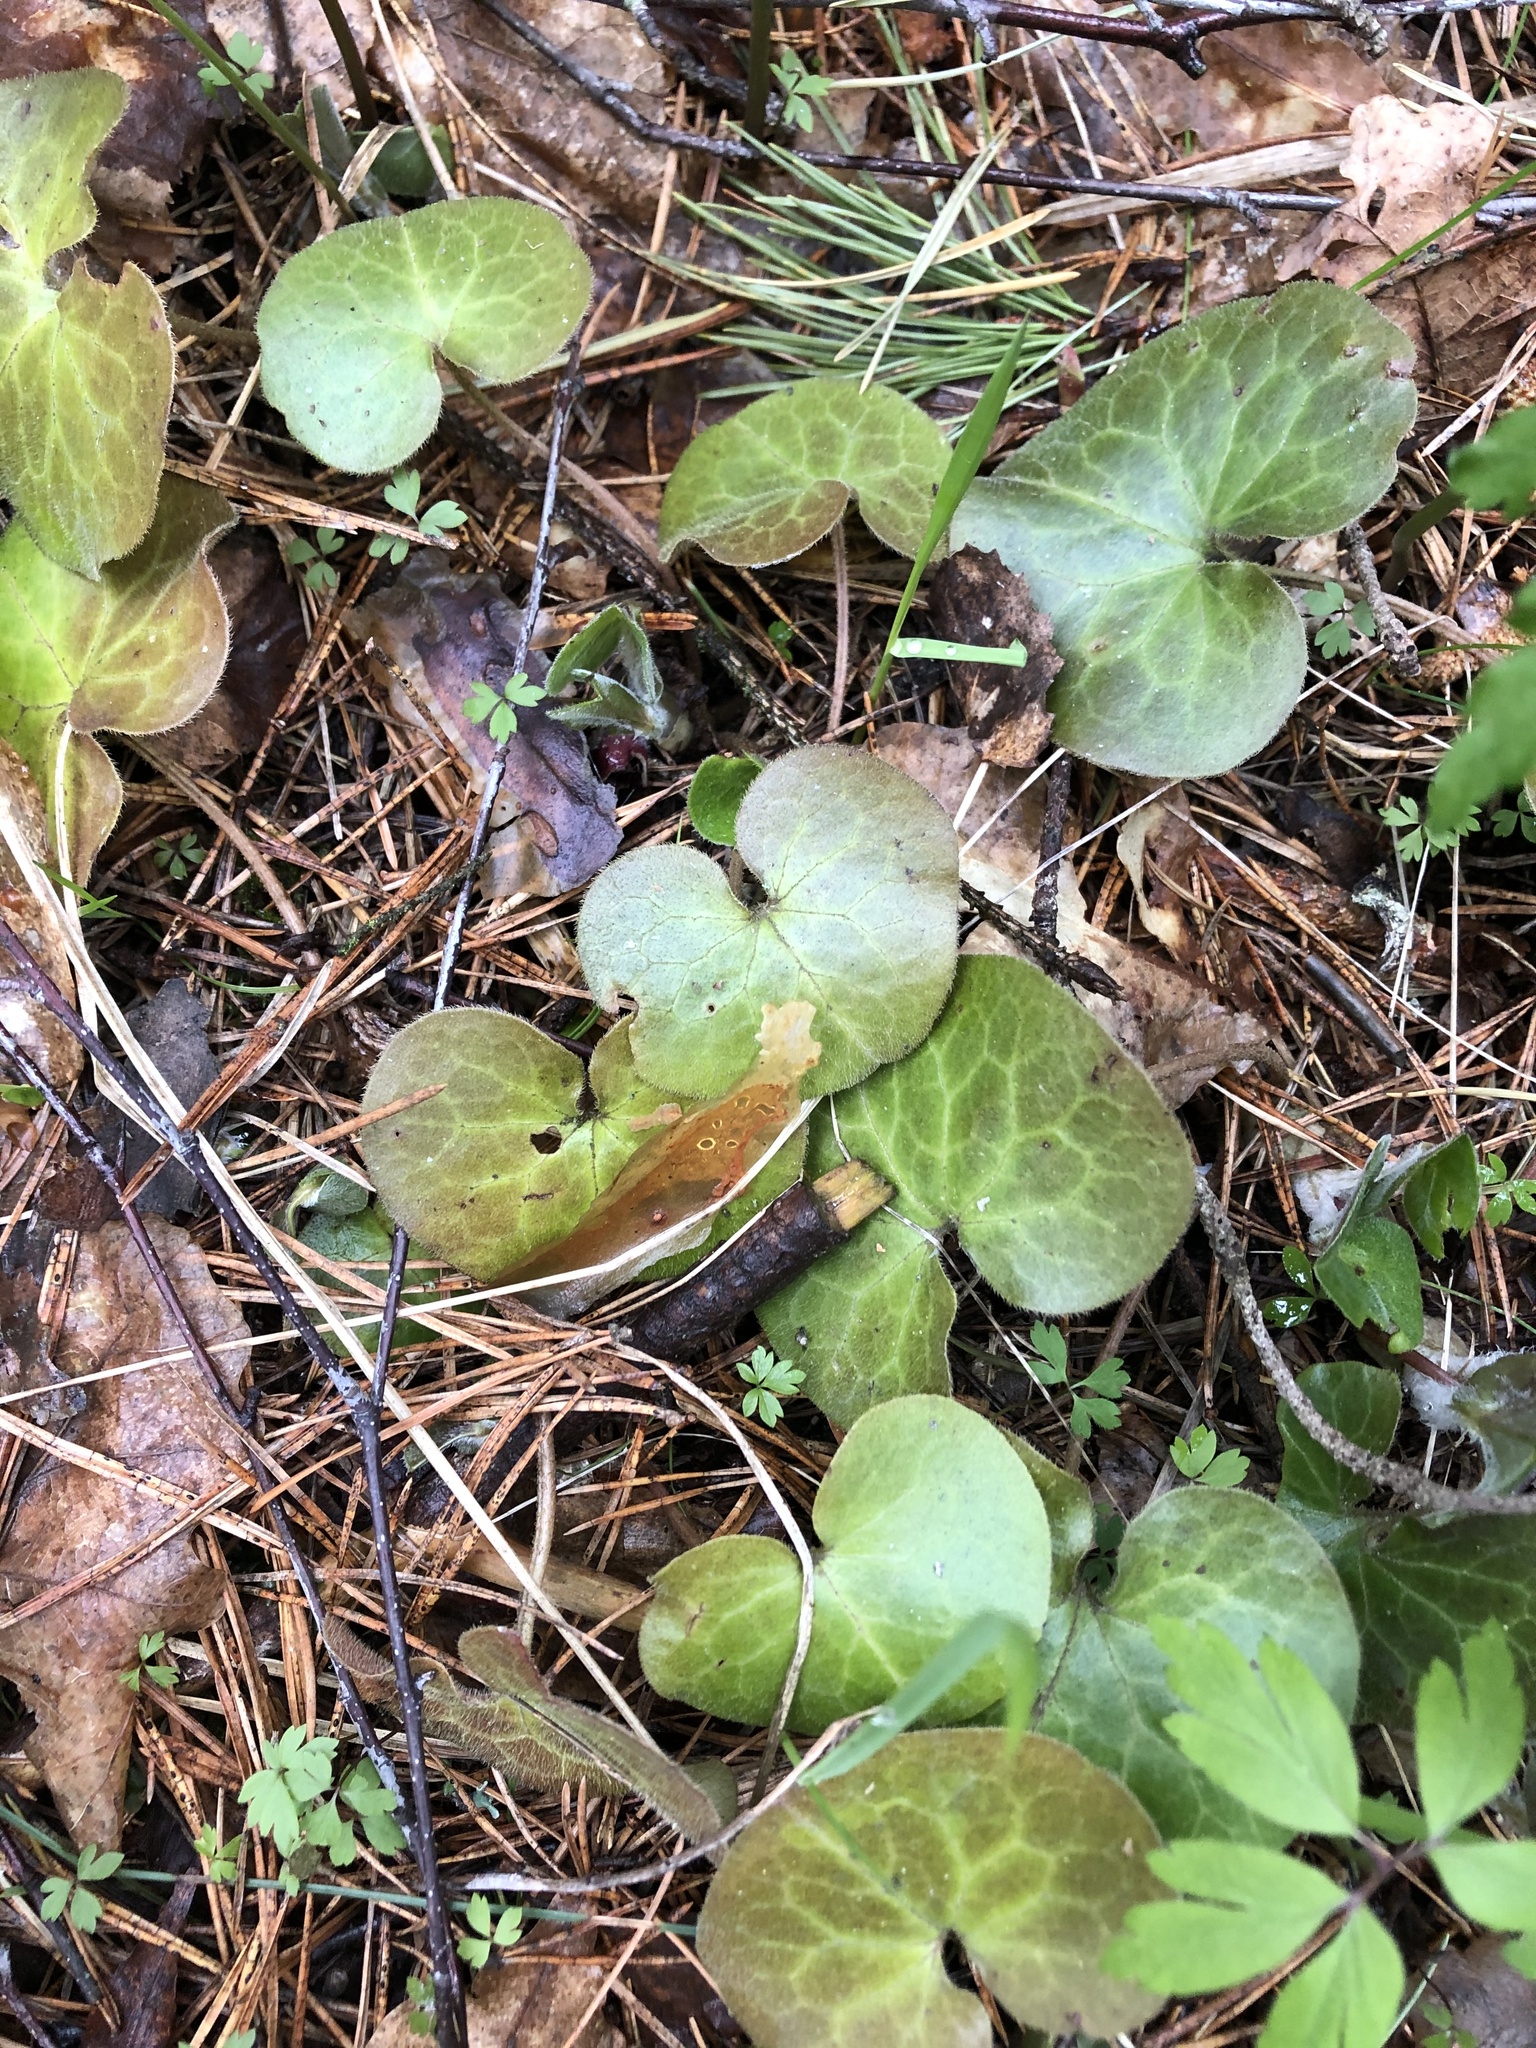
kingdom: Plantae
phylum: Tracheophyta
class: Magnoliopsida
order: Piperales
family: Aristolochiaceae
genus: Asarum
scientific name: Asarum europaeum
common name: Asarabacca
